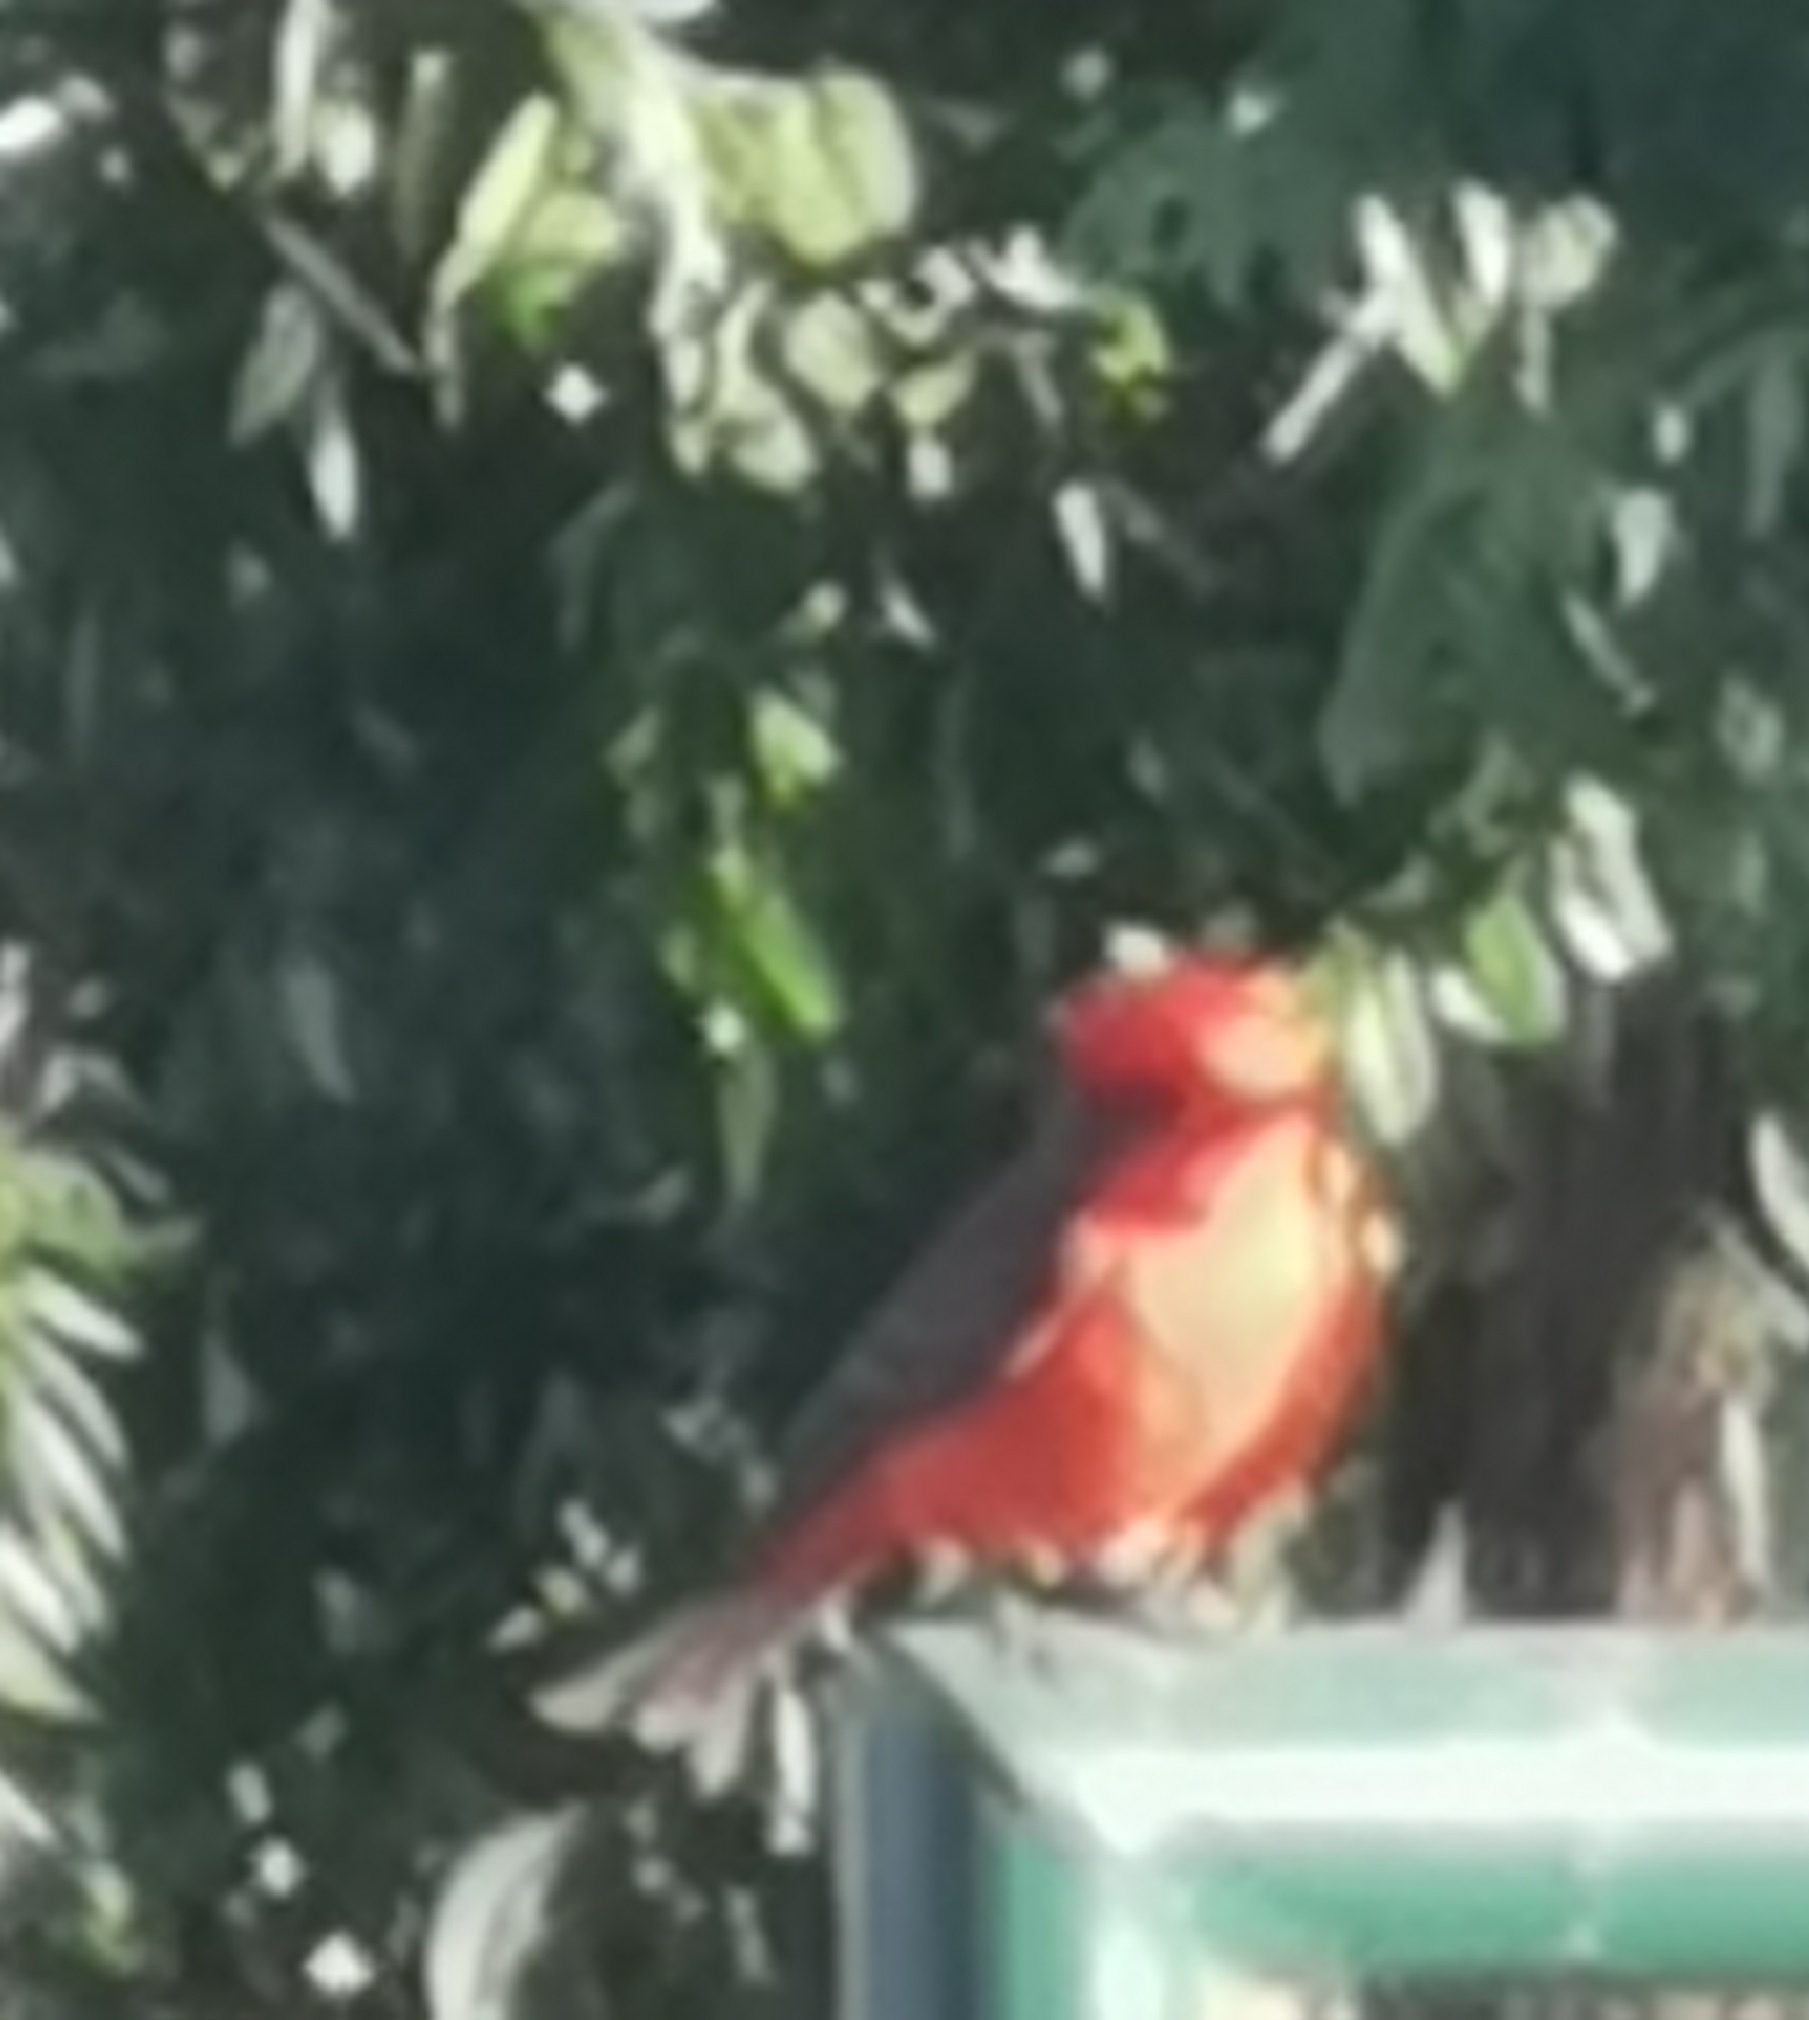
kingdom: Animalia
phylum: Chordata
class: Aves
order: Passeriformes
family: Tyrannidae
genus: Pyrocephalus
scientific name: Pyrocephalus rubinus
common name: Vermilion flycatcher
